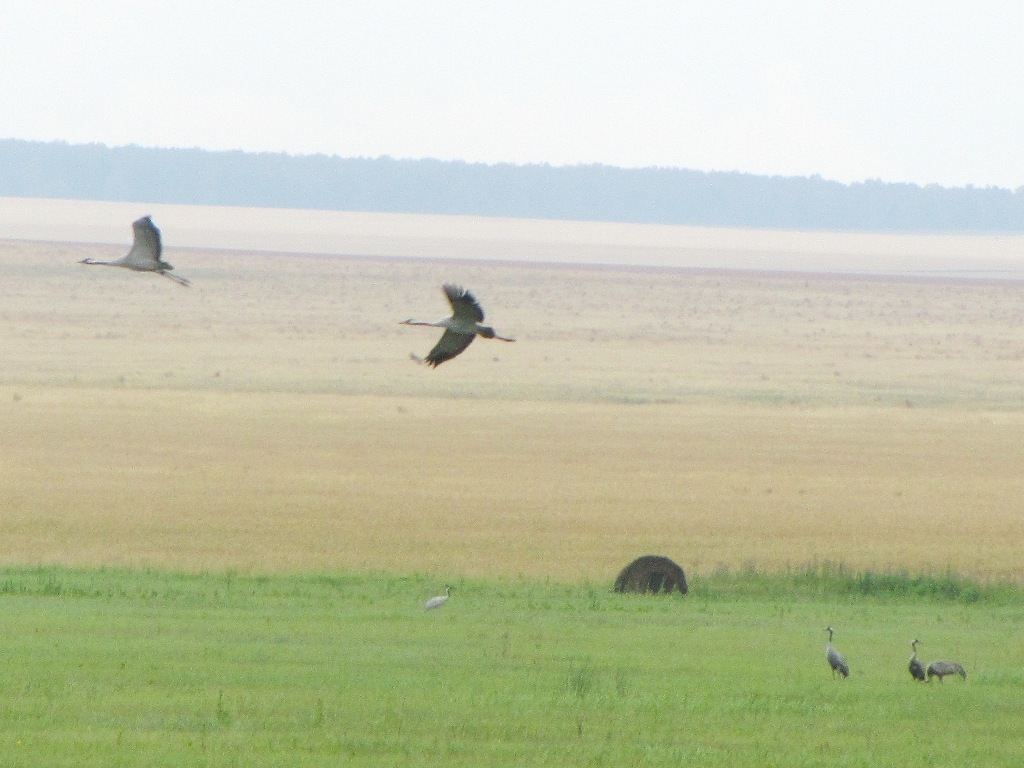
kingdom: Animalia
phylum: Chordata
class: Aves
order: Gruiformes
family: Gruidae
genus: Grus
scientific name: Grus grus
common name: Common crane
